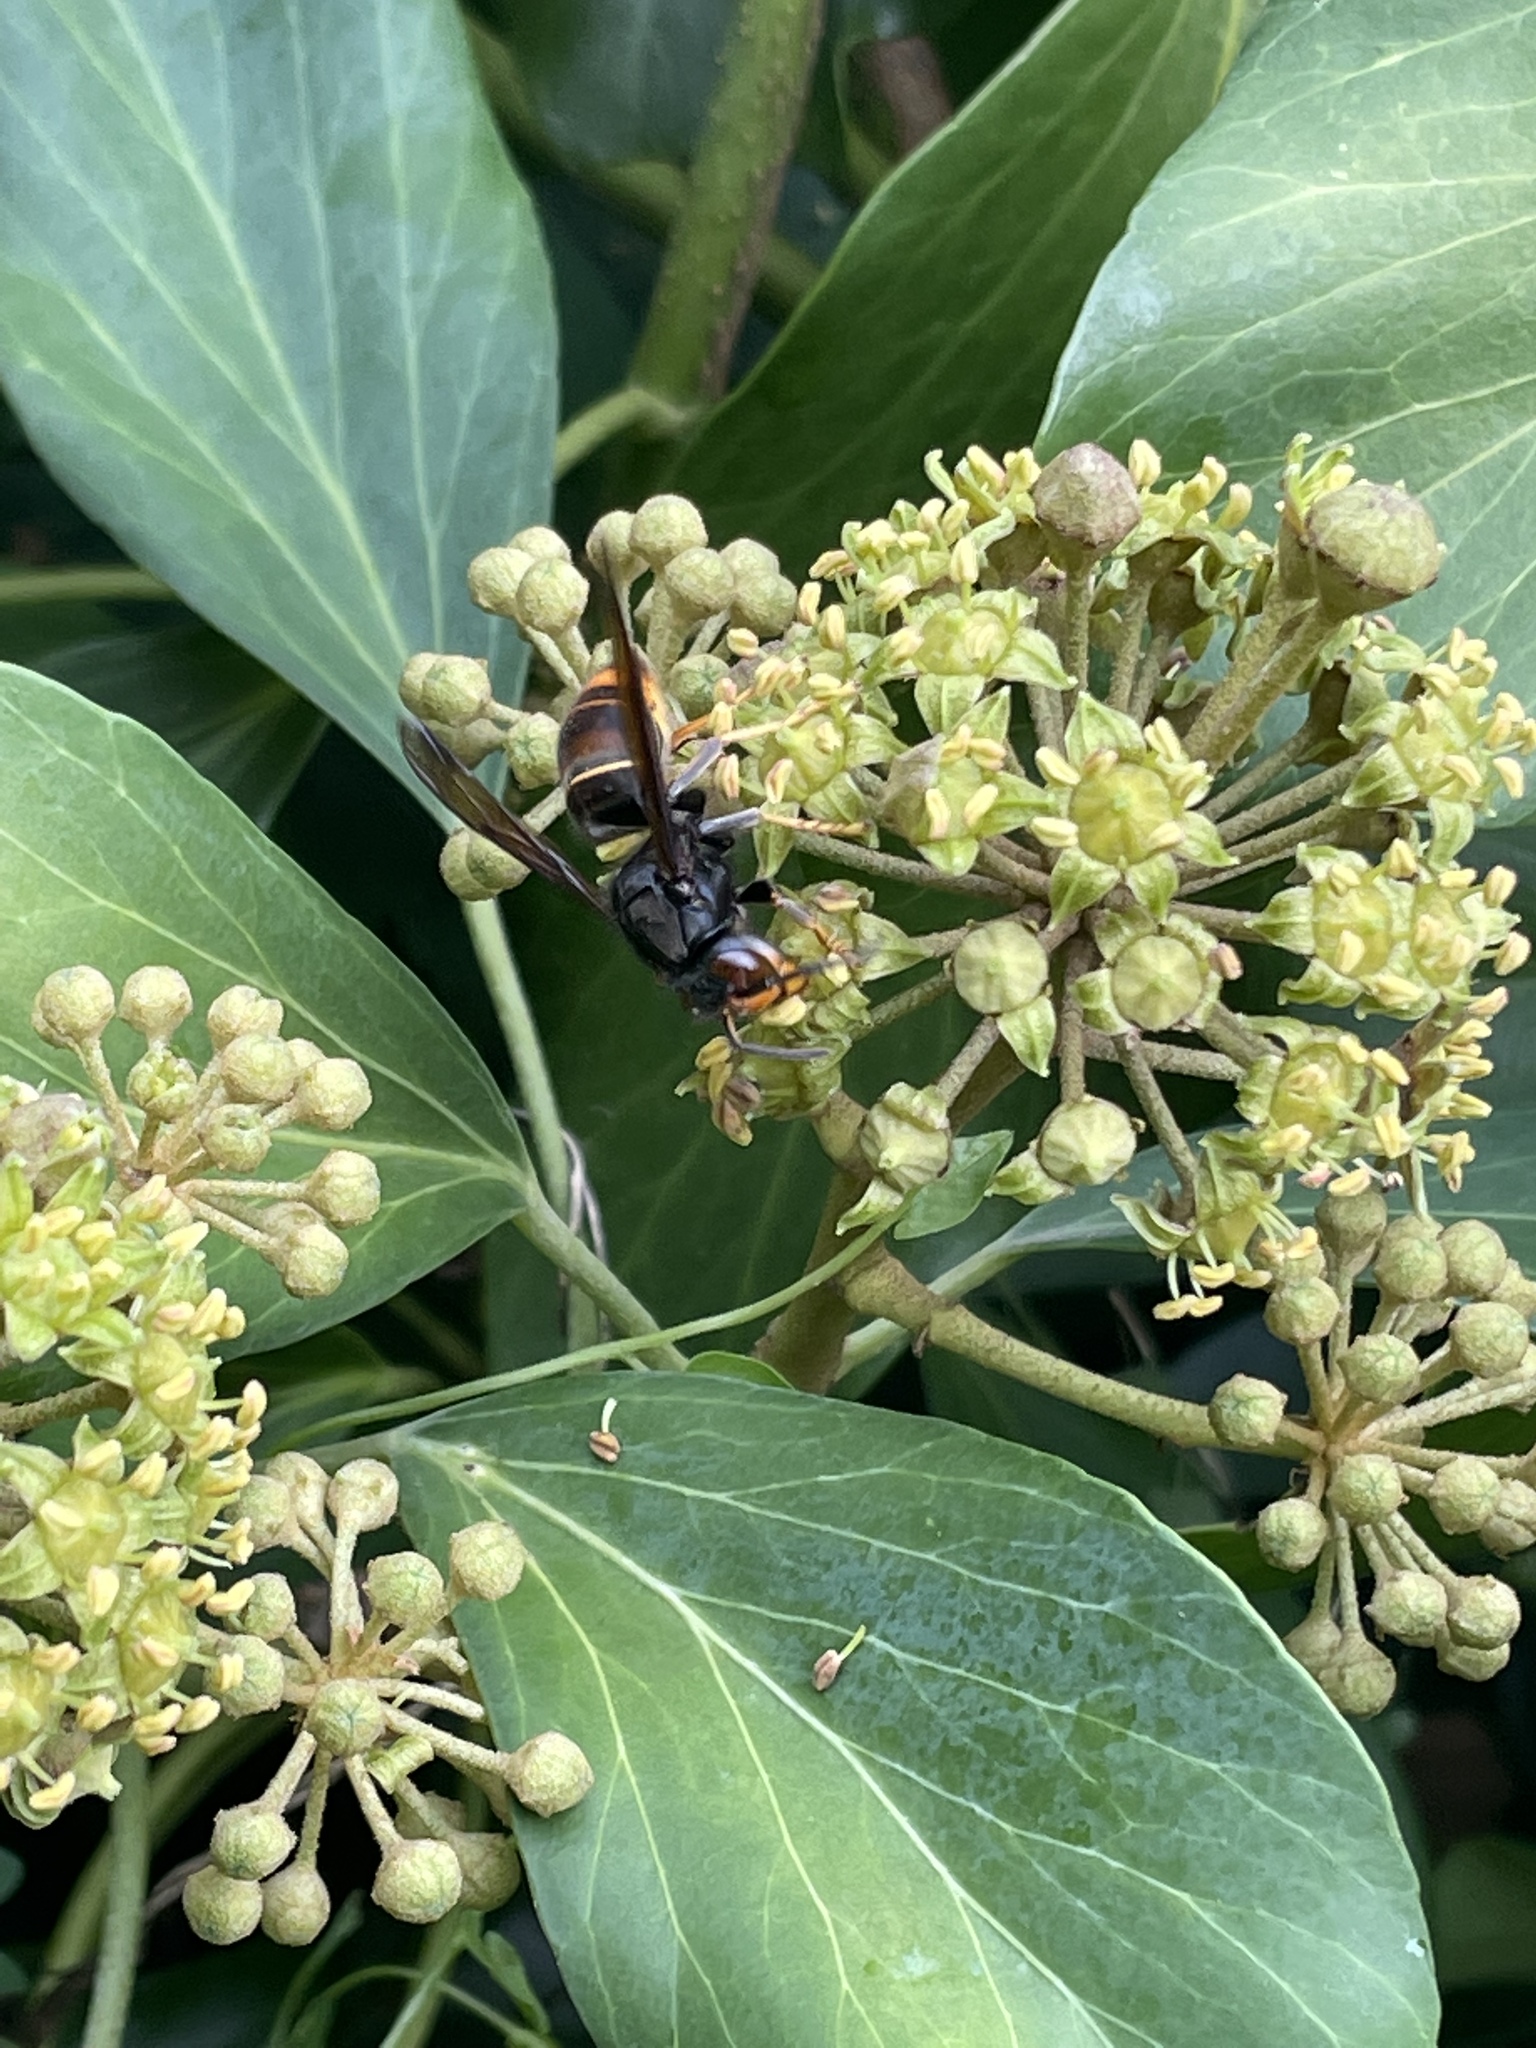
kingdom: Animalia
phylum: Arthropoda
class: Insecta
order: Hymenoptera
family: Vespidae
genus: Vespa
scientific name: Vespa velutina
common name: Asian hornet
